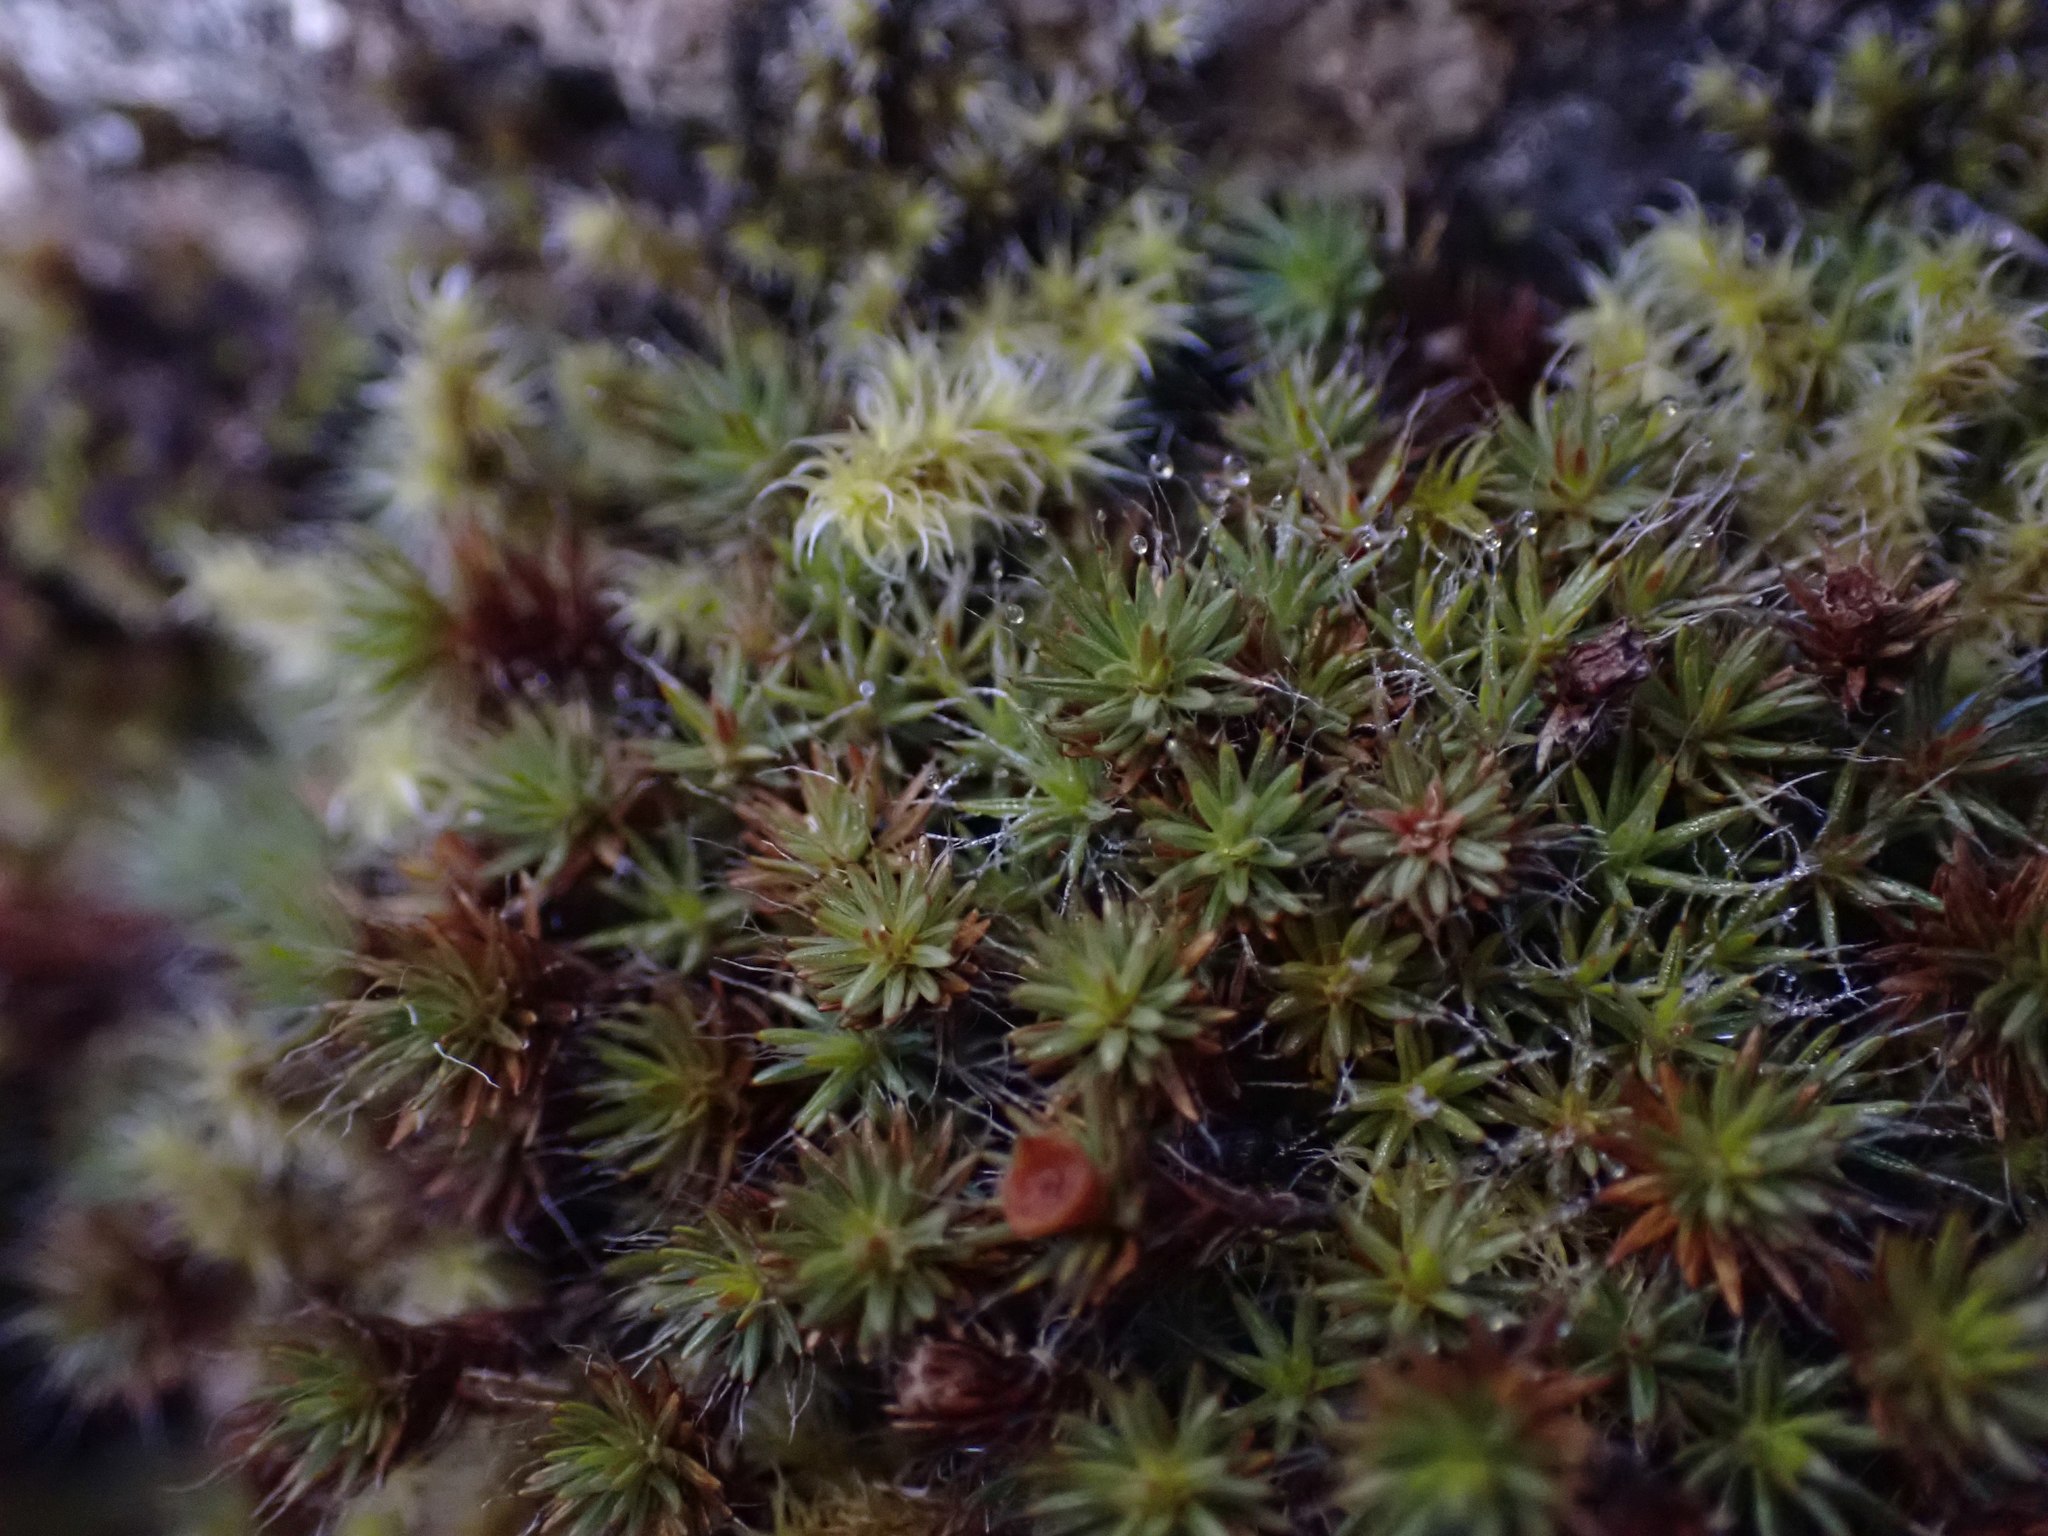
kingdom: Plantae
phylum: Bryophyta
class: Polytrichopsida
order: Polytrichales
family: Polytrichaceae
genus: Polytrichum
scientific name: Polytrichum piliferum
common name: Bristly haircap
